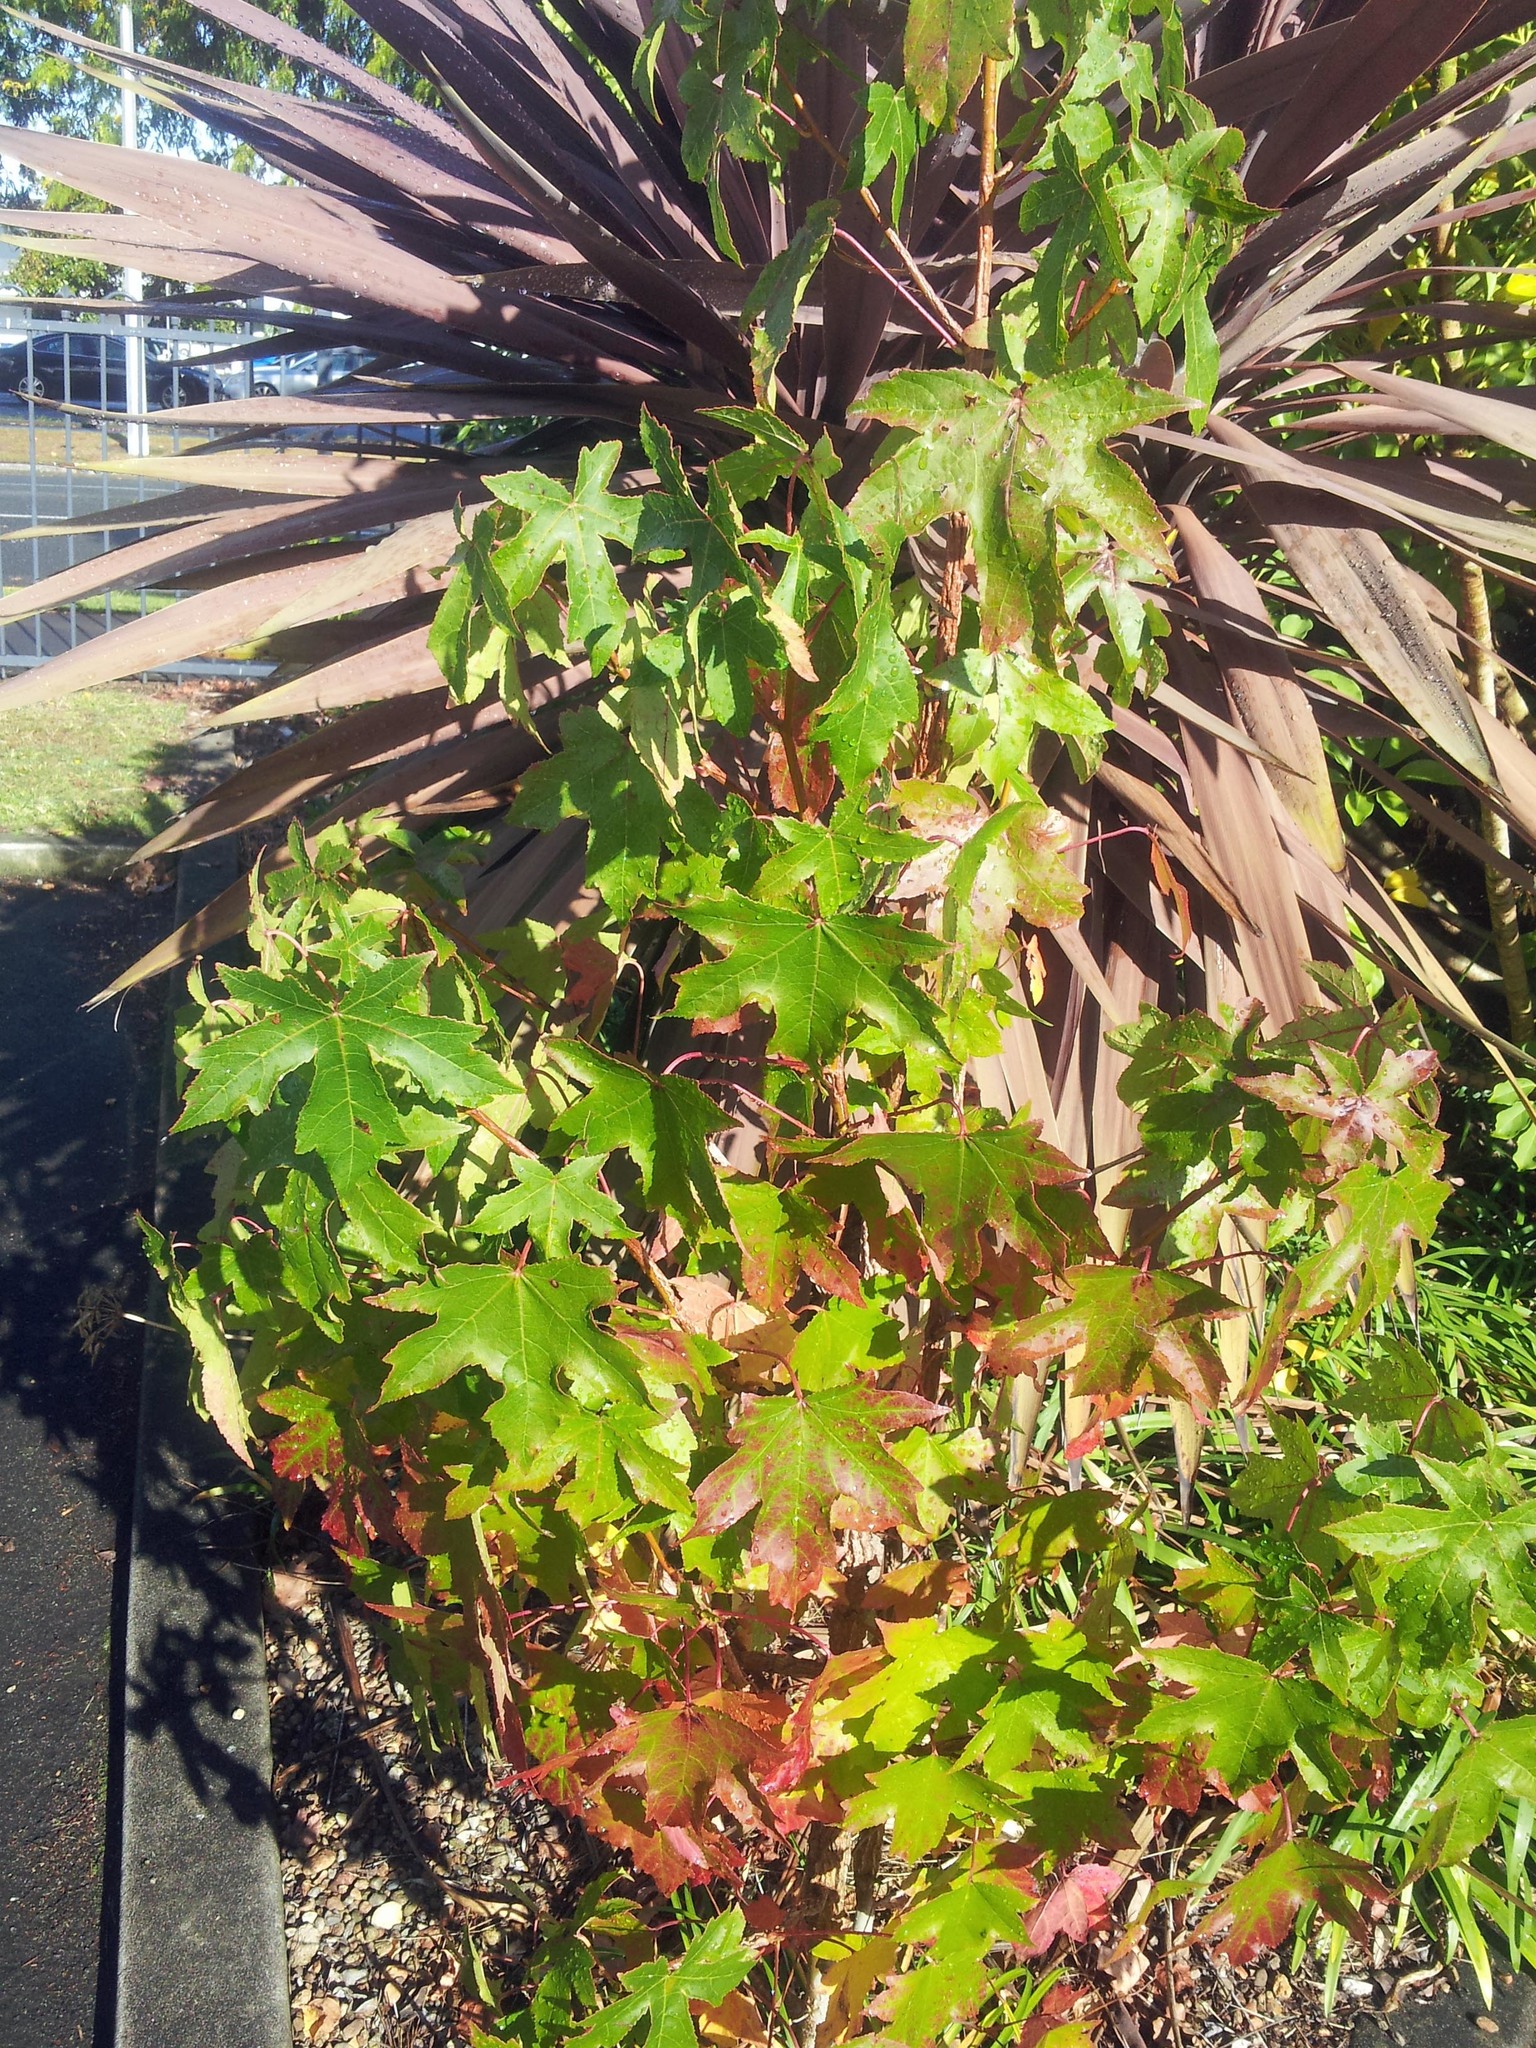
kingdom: Plantae
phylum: Tracheophyta
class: Magnoliopsida
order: Saxifragales
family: Altingiaceae
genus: Liquidambar
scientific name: Liquidambar styraciflua
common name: Sweet gum
